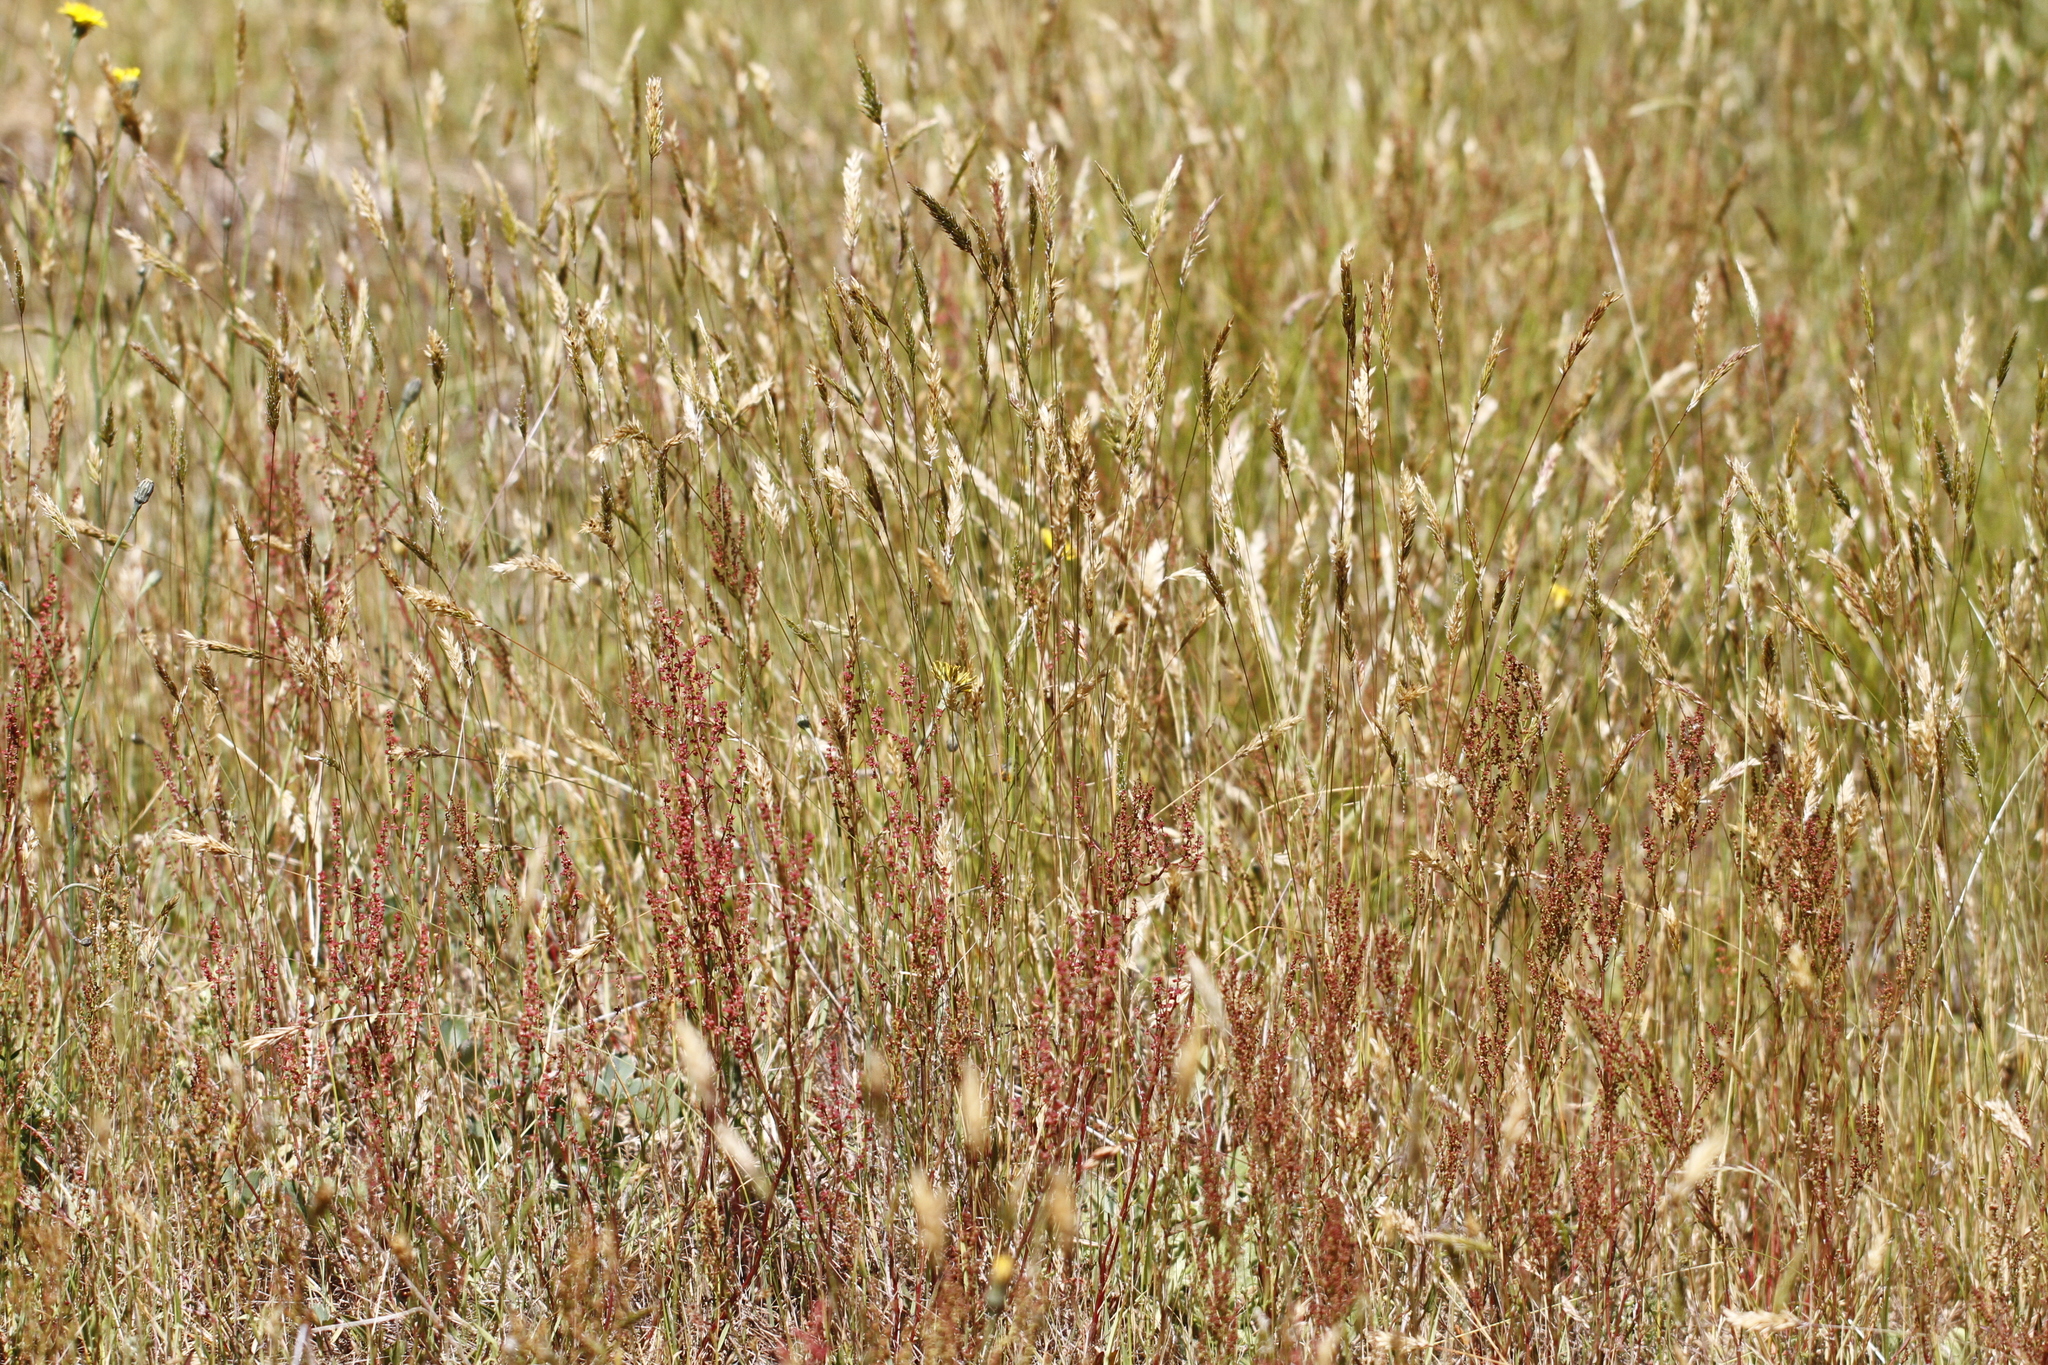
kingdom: Plantae
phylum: Tracheophyta
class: Magnoliopsida
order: Caryophyllales
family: Polygonaceae
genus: Rumex
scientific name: Rumex acetosella
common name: Common sheep sorrel
